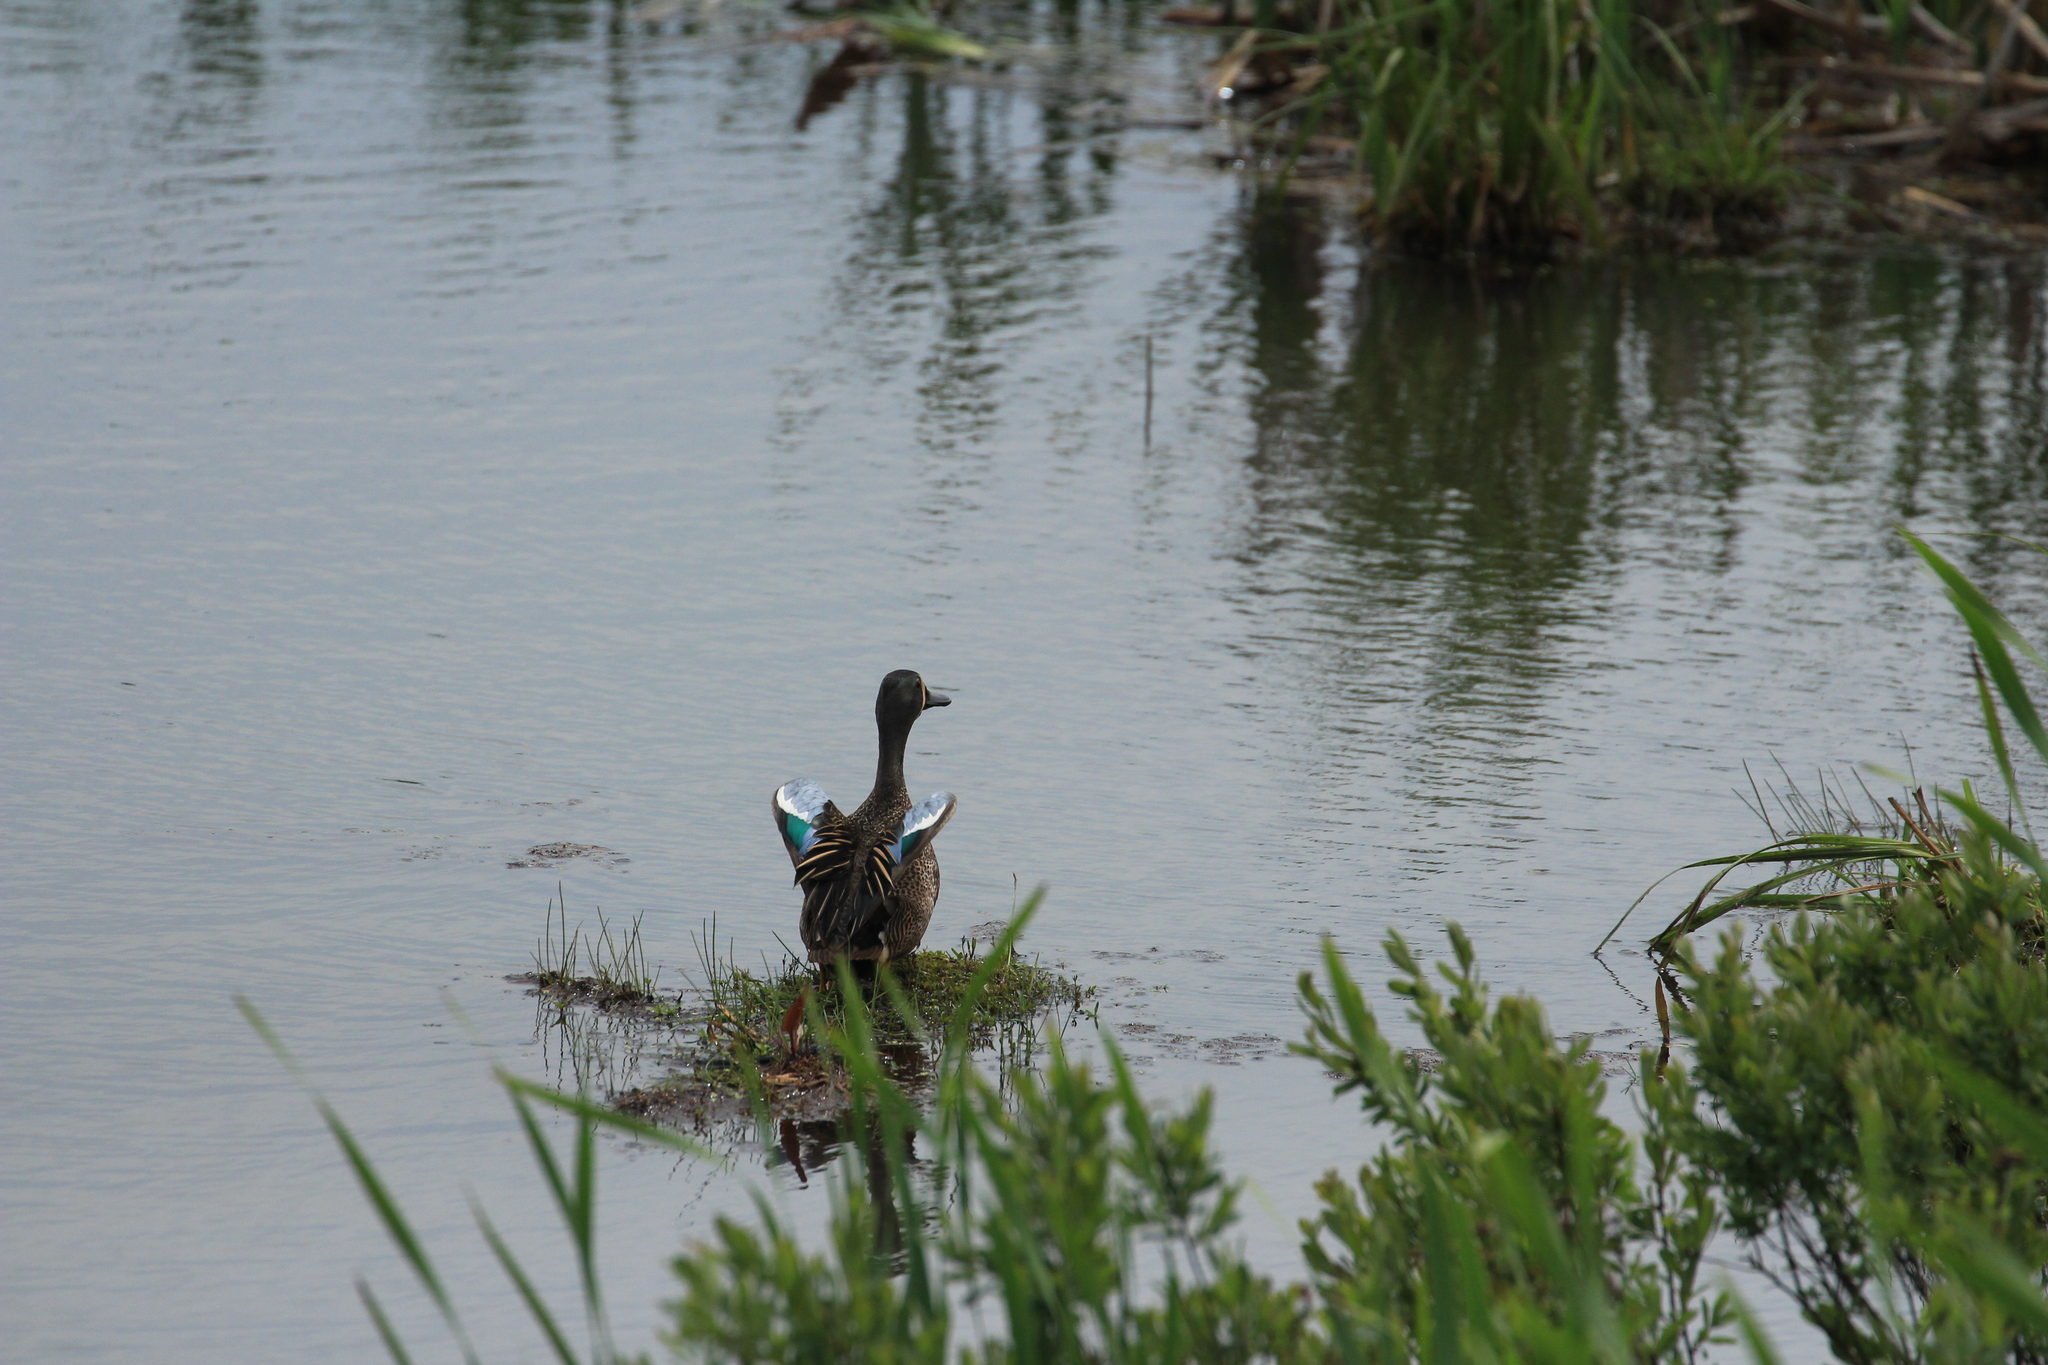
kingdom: Animalia
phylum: Chordata
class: Aves
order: Anseriformes
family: Anatidae
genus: Spatula
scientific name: Spatula discors
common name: Blue-winged teal
